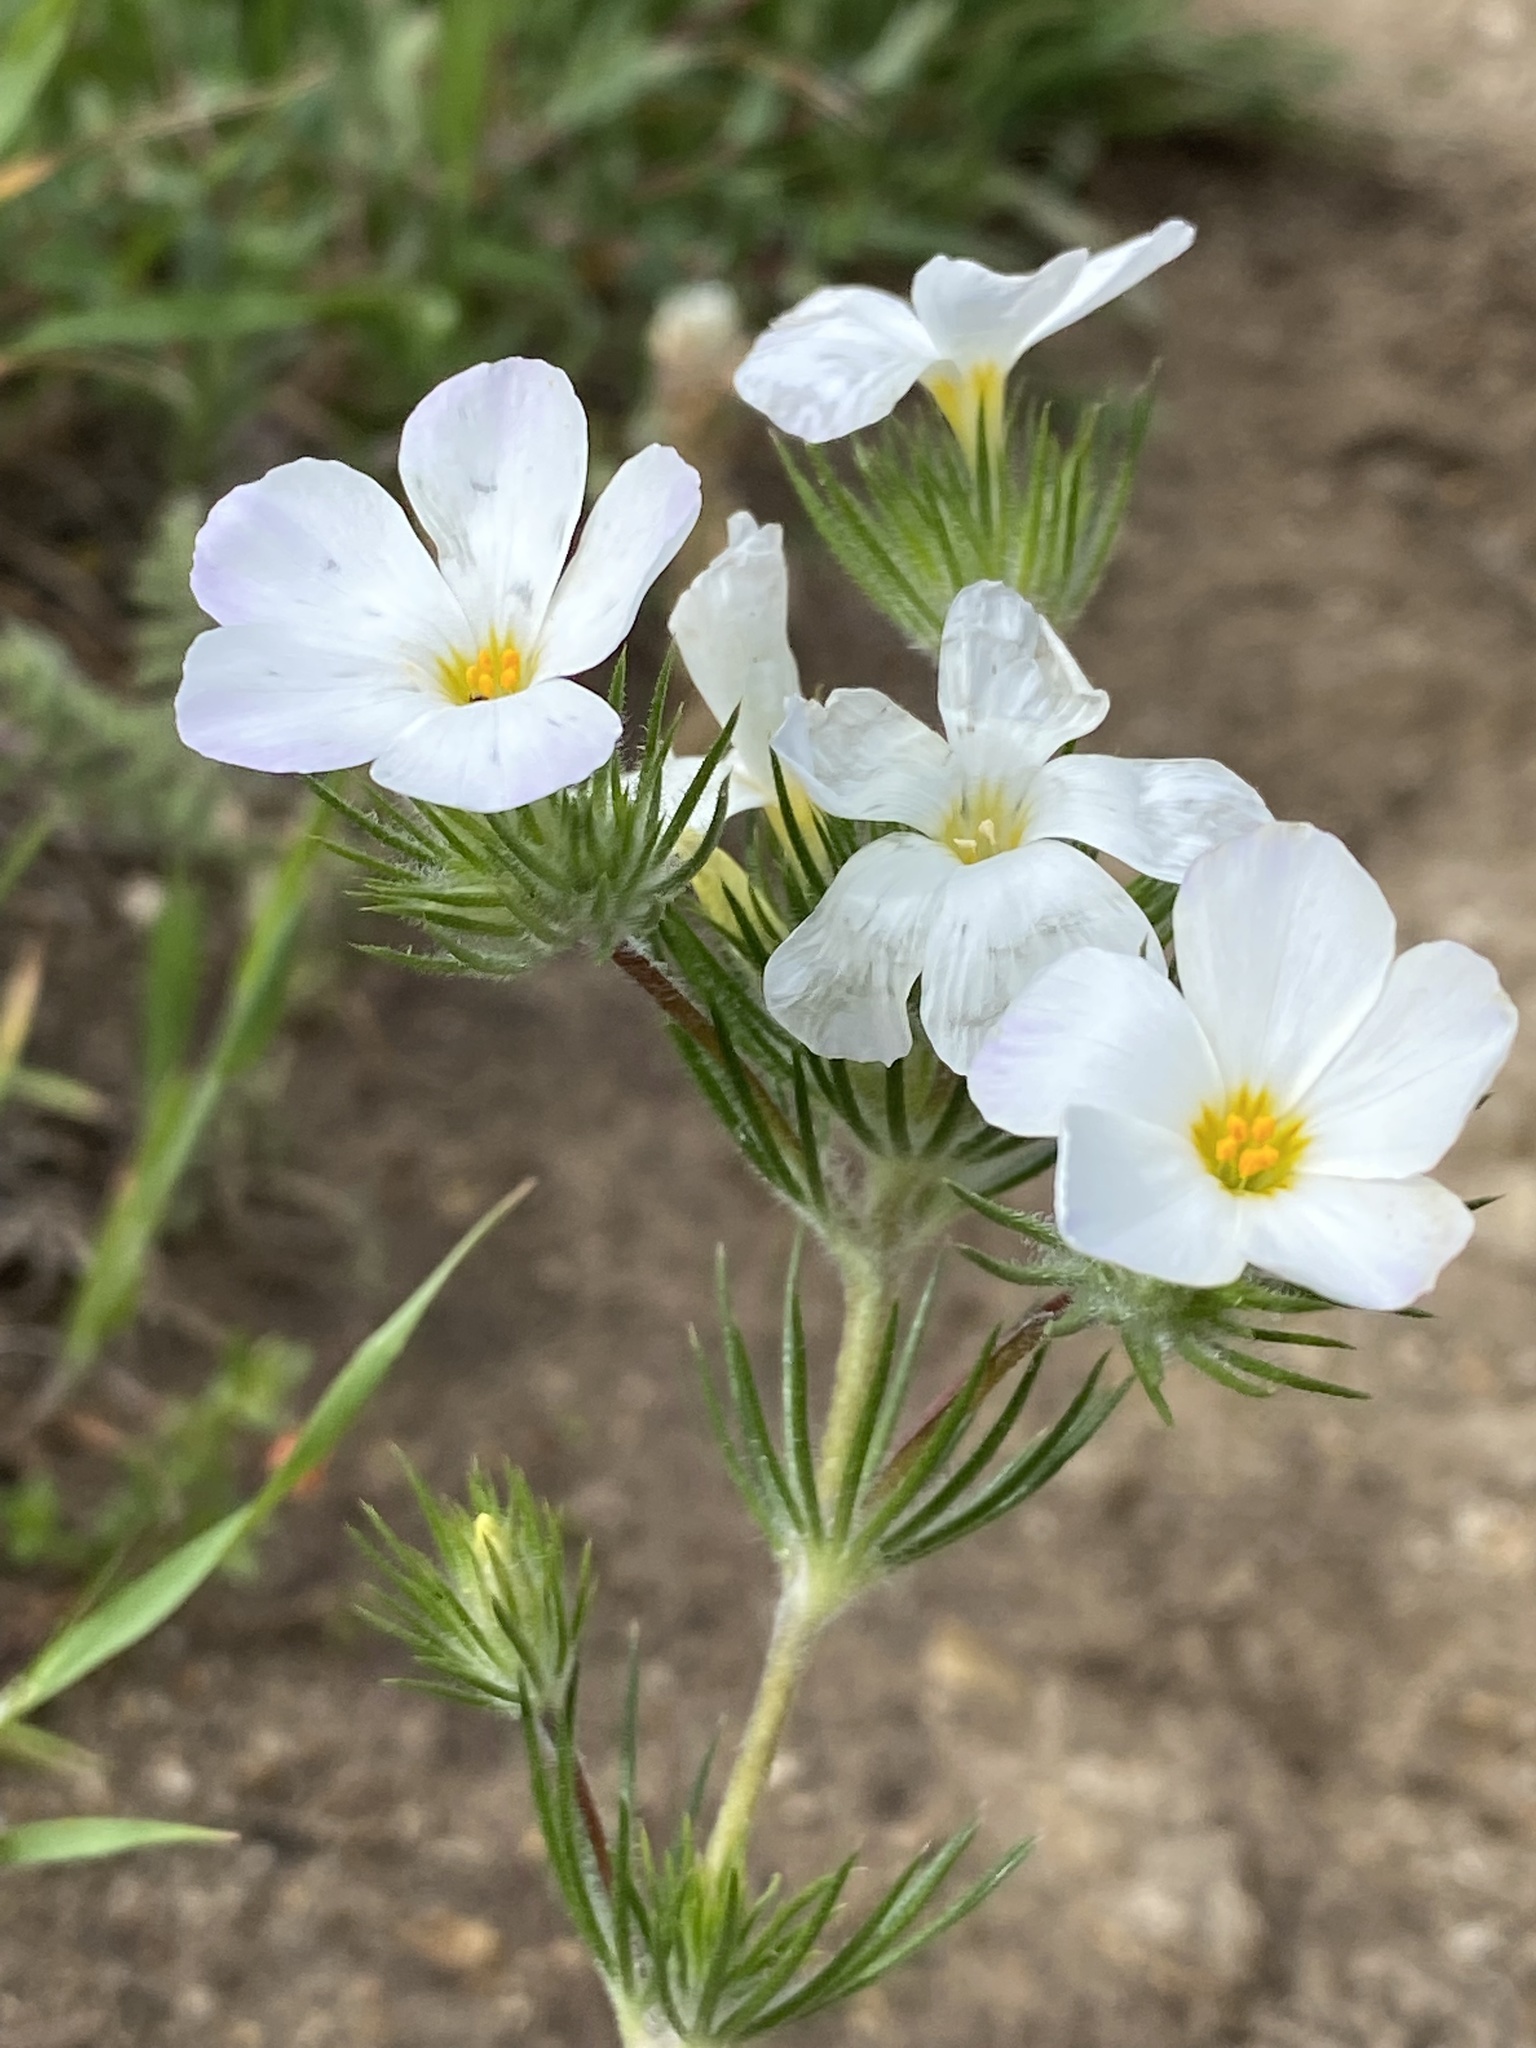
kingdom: Plantae
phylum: Tracheophyta
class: Magnoliopsida
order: Ericales
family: Polemoniaceae
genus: Leptosiphon
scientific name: Leptosiphon grandiflorus
